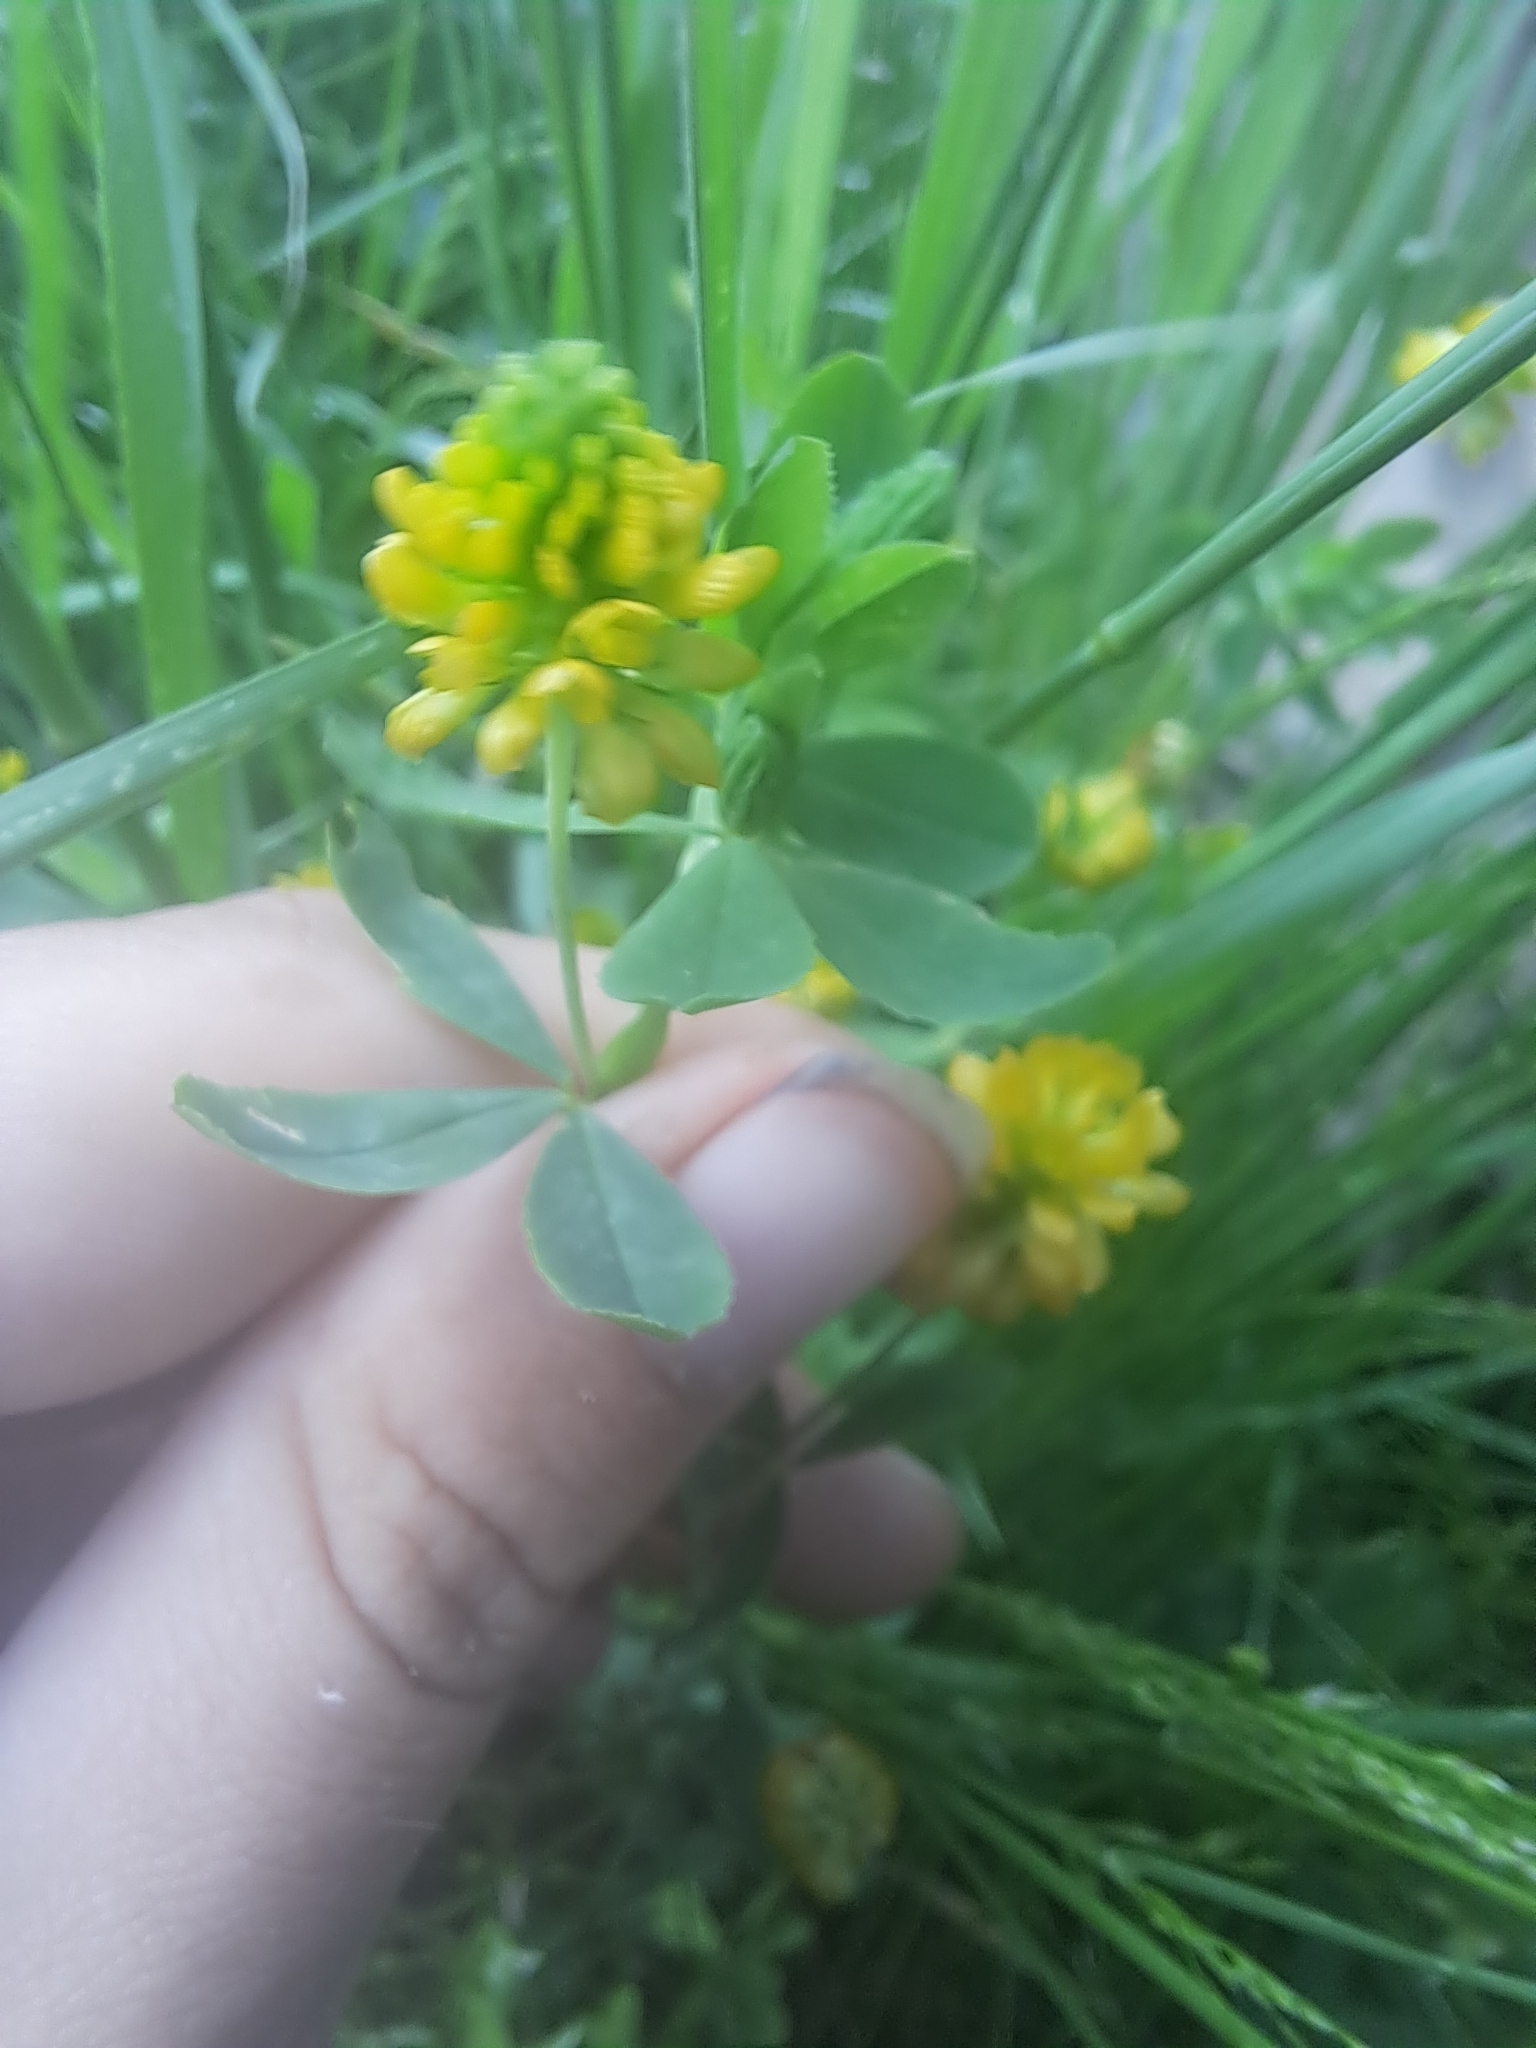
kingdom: Plantae
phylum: Tracheophyta
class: Magnoliopsida
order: Fabales
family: Fabaceae
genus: Trifolium
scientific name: Trifolium aureum
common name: Golden clover
